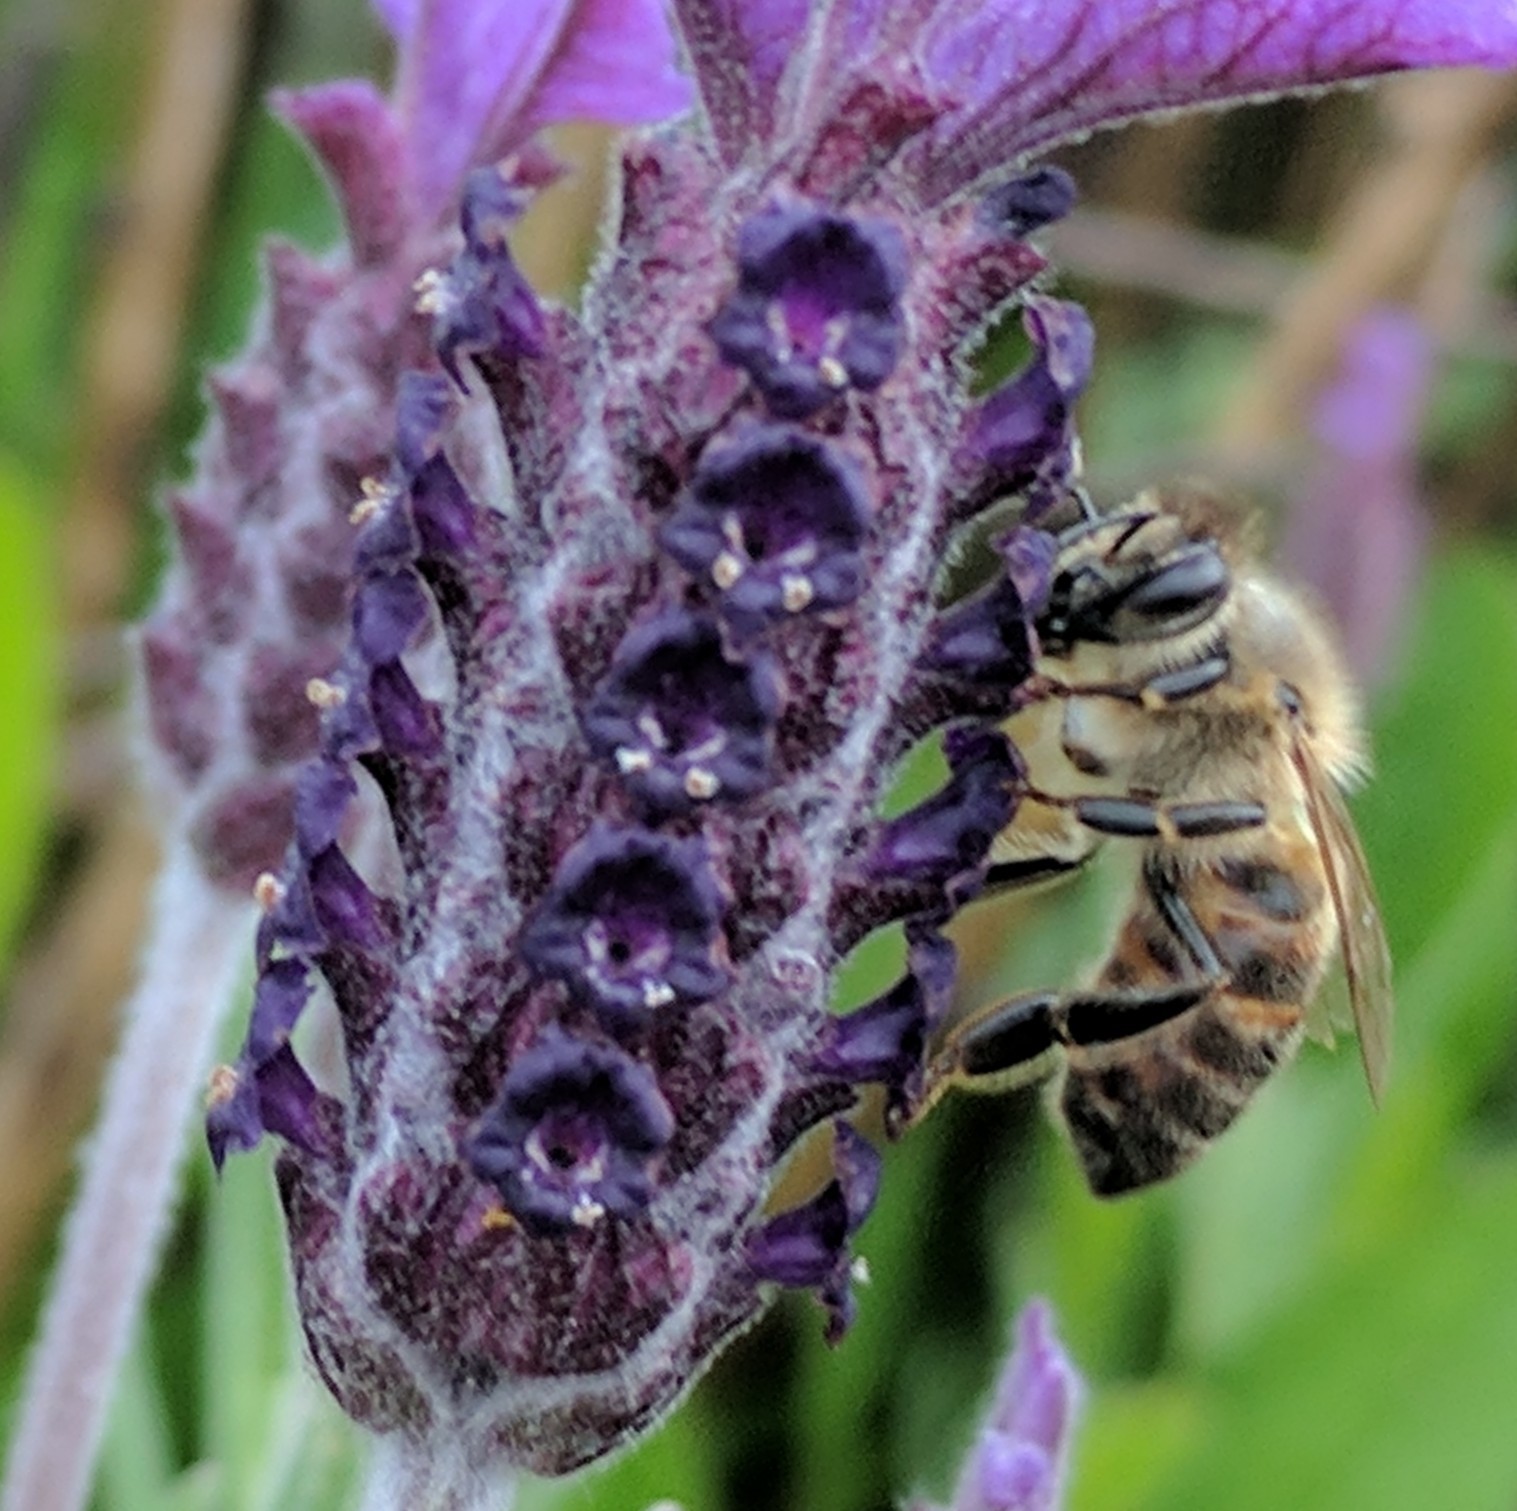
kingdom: Animalia
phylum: Arthropoda
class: Insecta
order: Hymenoptera
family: Apidae
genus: Apis
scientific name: Apis mellifera
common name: Honey bee
